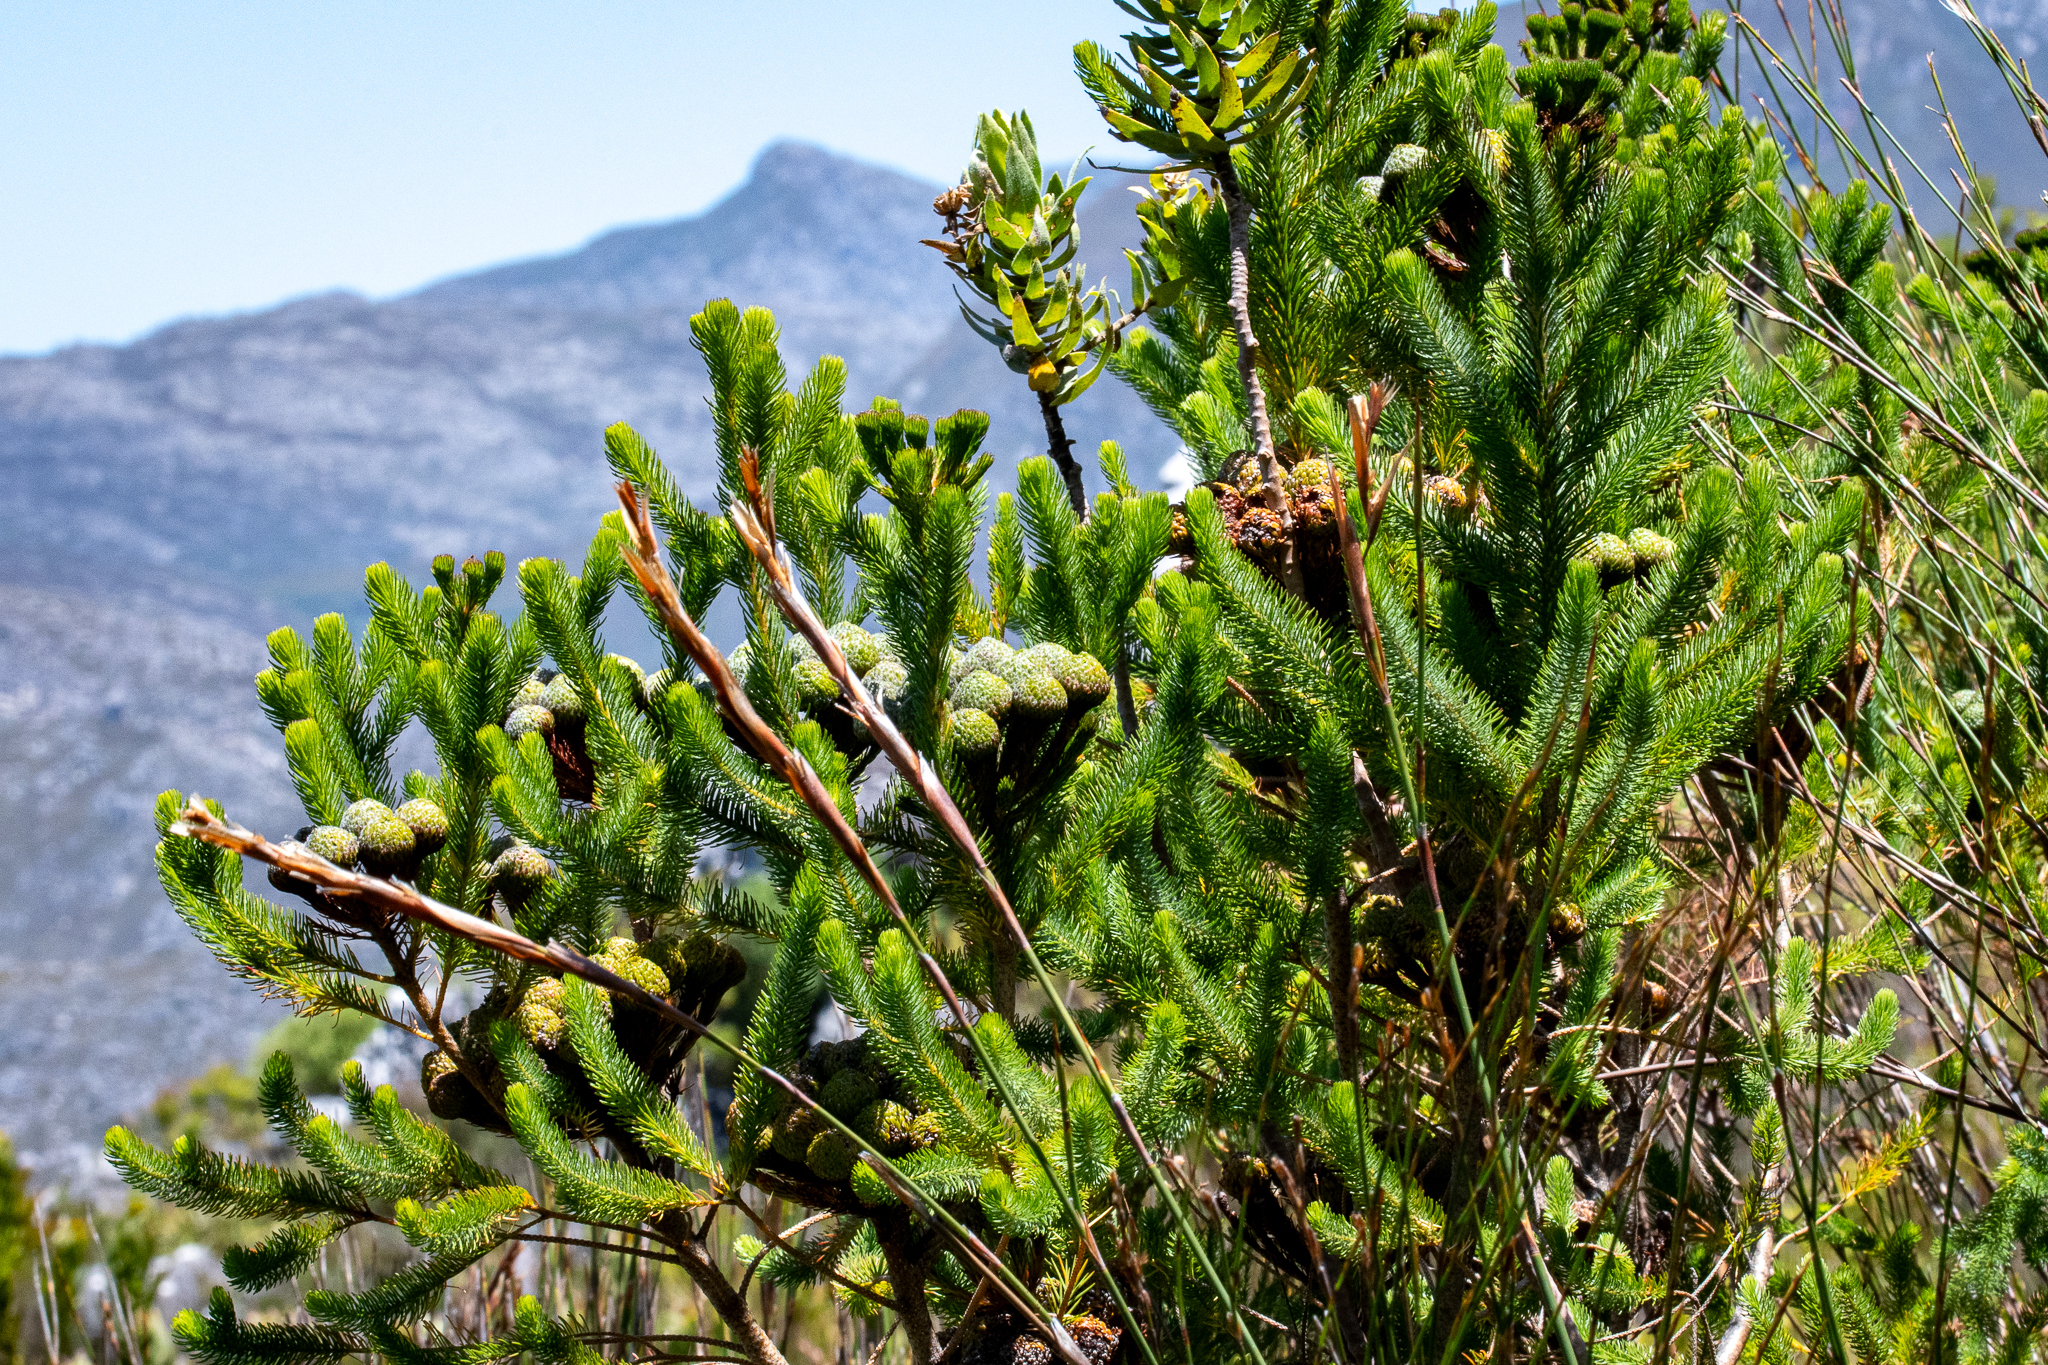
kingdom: Plantae
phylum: Tracheophyta
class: Magnoliopsida
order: Bruniales
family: Bruniaceae
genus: Berzelia
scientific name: Berzelia albiflora
